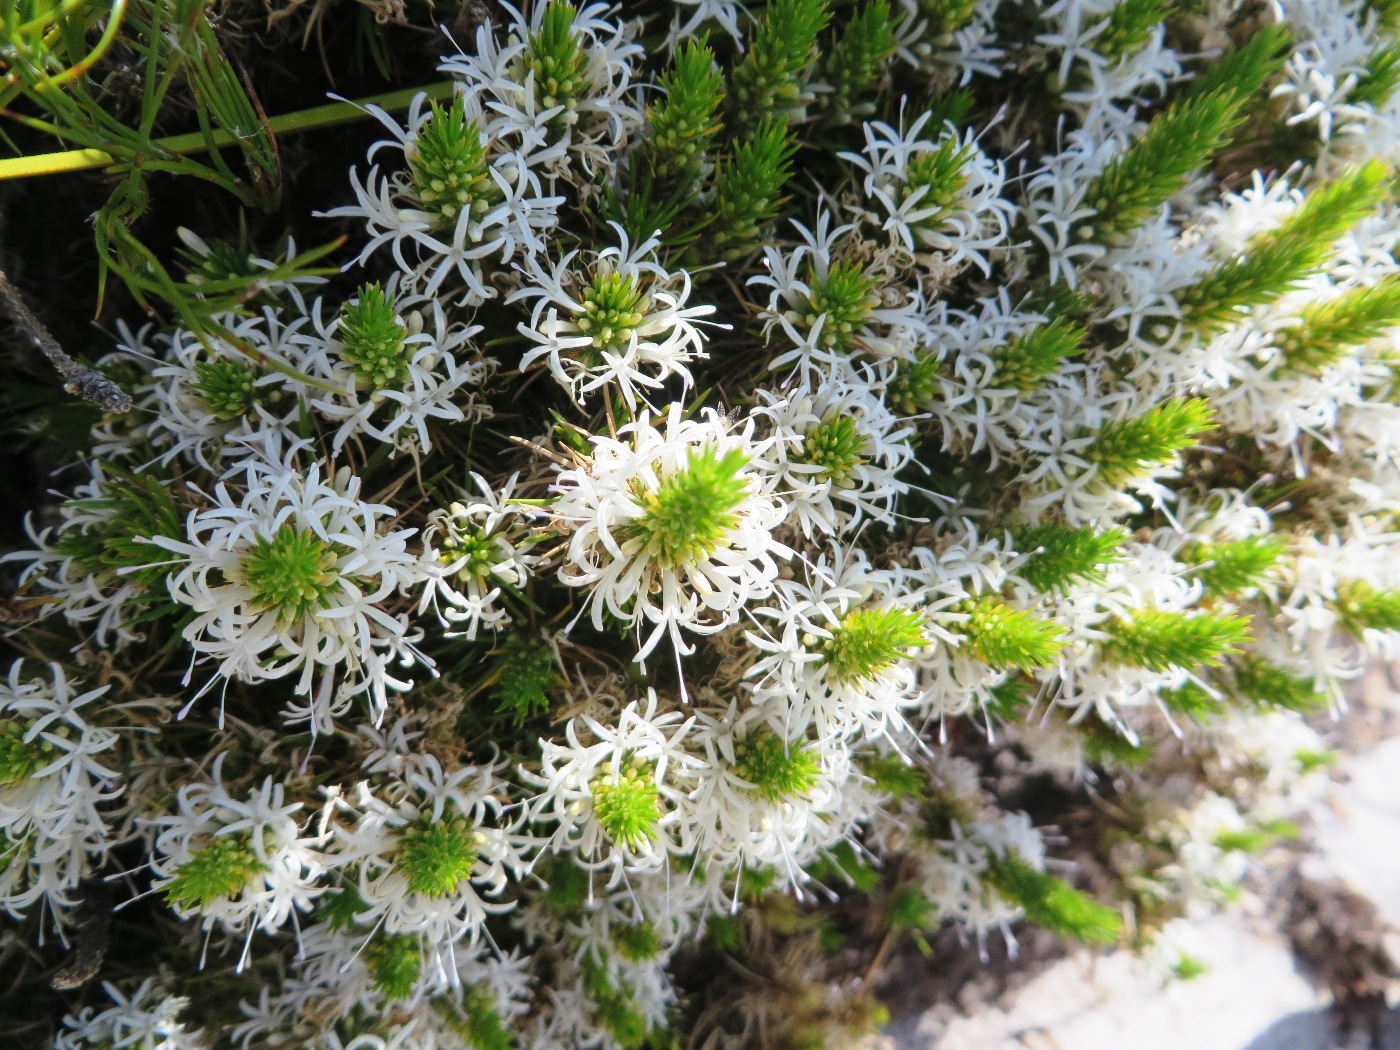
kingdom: Plantae
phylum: Tracheophyta
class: Magnoliopsida
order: Asterales
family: Campanulaceae
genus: Merciera
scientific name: Merciera leptoloba
